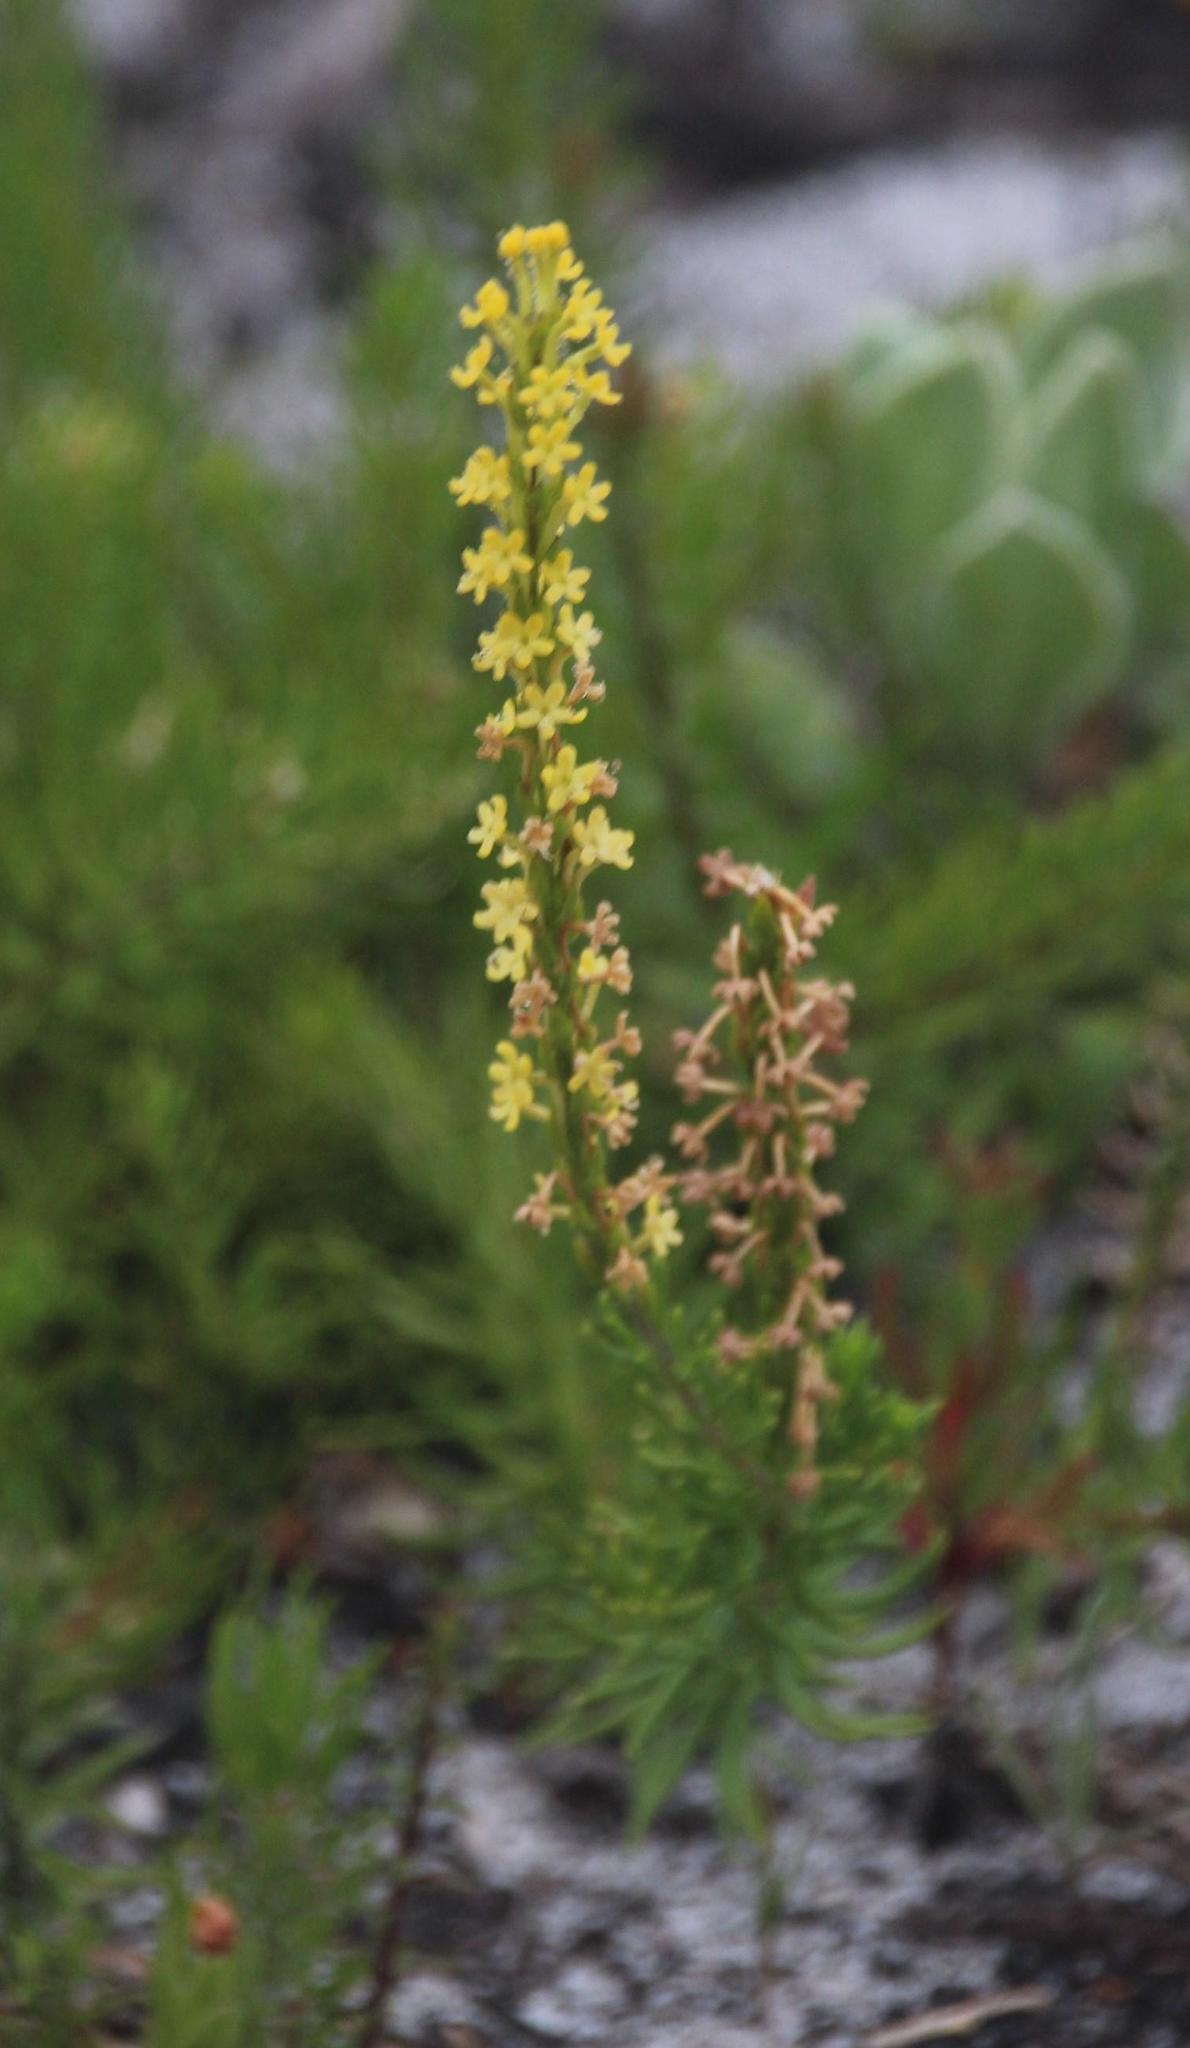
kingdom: Plantae
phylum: Tracheophyta
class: Magnoliopsida
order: Lamiales
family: Scrophulariaceae
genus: Microdon
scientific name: Microdon dubius
